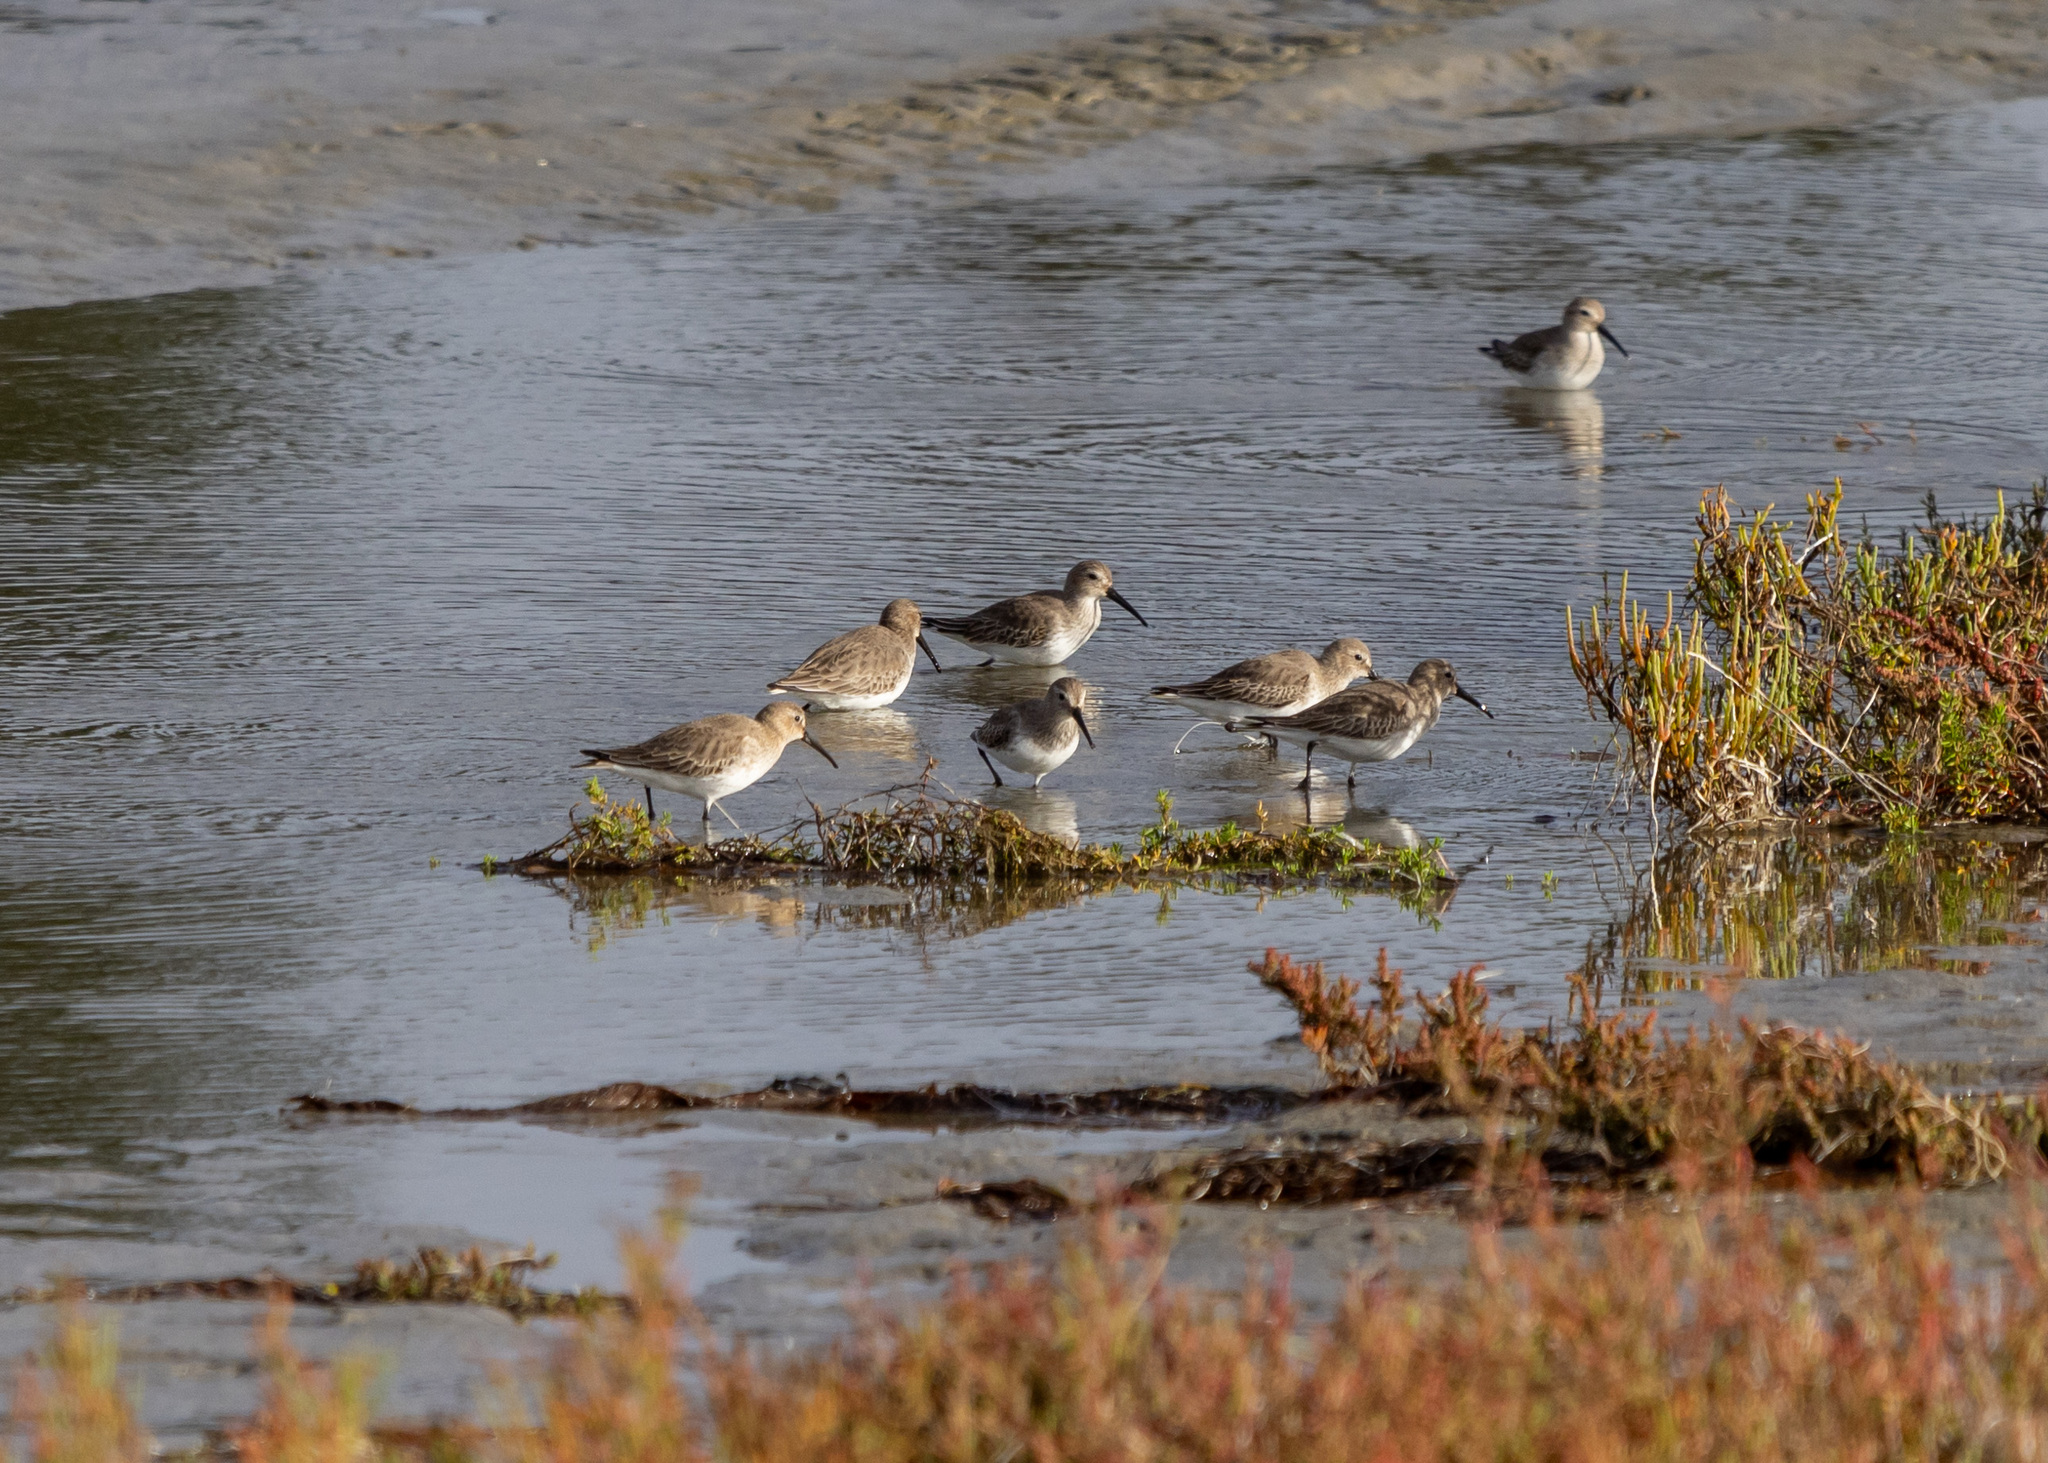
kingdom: Animalia
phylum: Chordata
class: Aves
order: Charadriiformes
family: Scolopacidae
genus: Calidris
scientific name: Calidris alpina
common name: Dunlin
